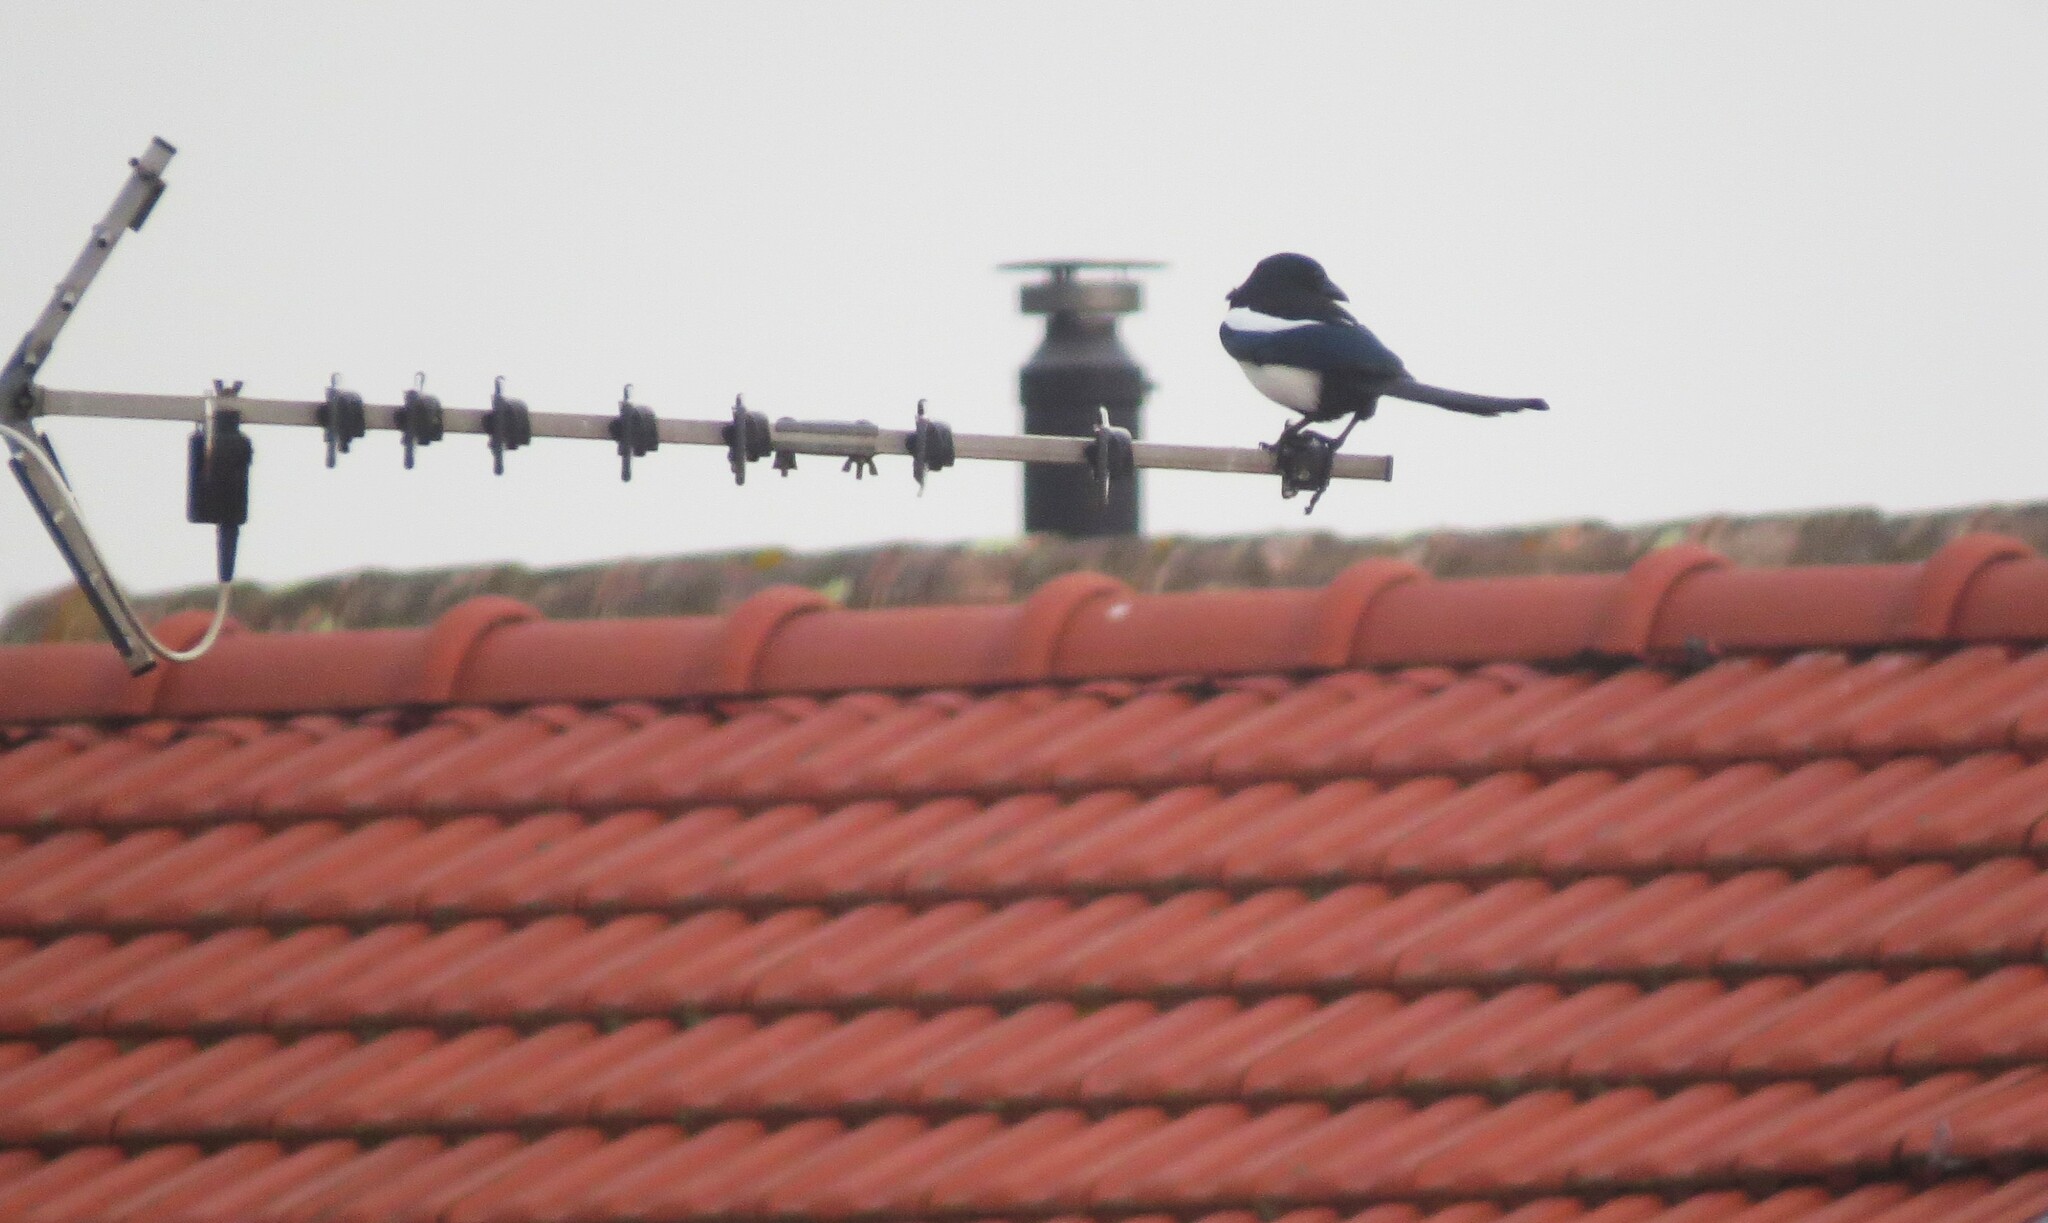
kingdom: Animalia
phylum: Chordata
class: Aves
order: Passeriformes
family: Corvidae
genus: Pica
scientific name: Pica pica
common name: Eurasian magpie
